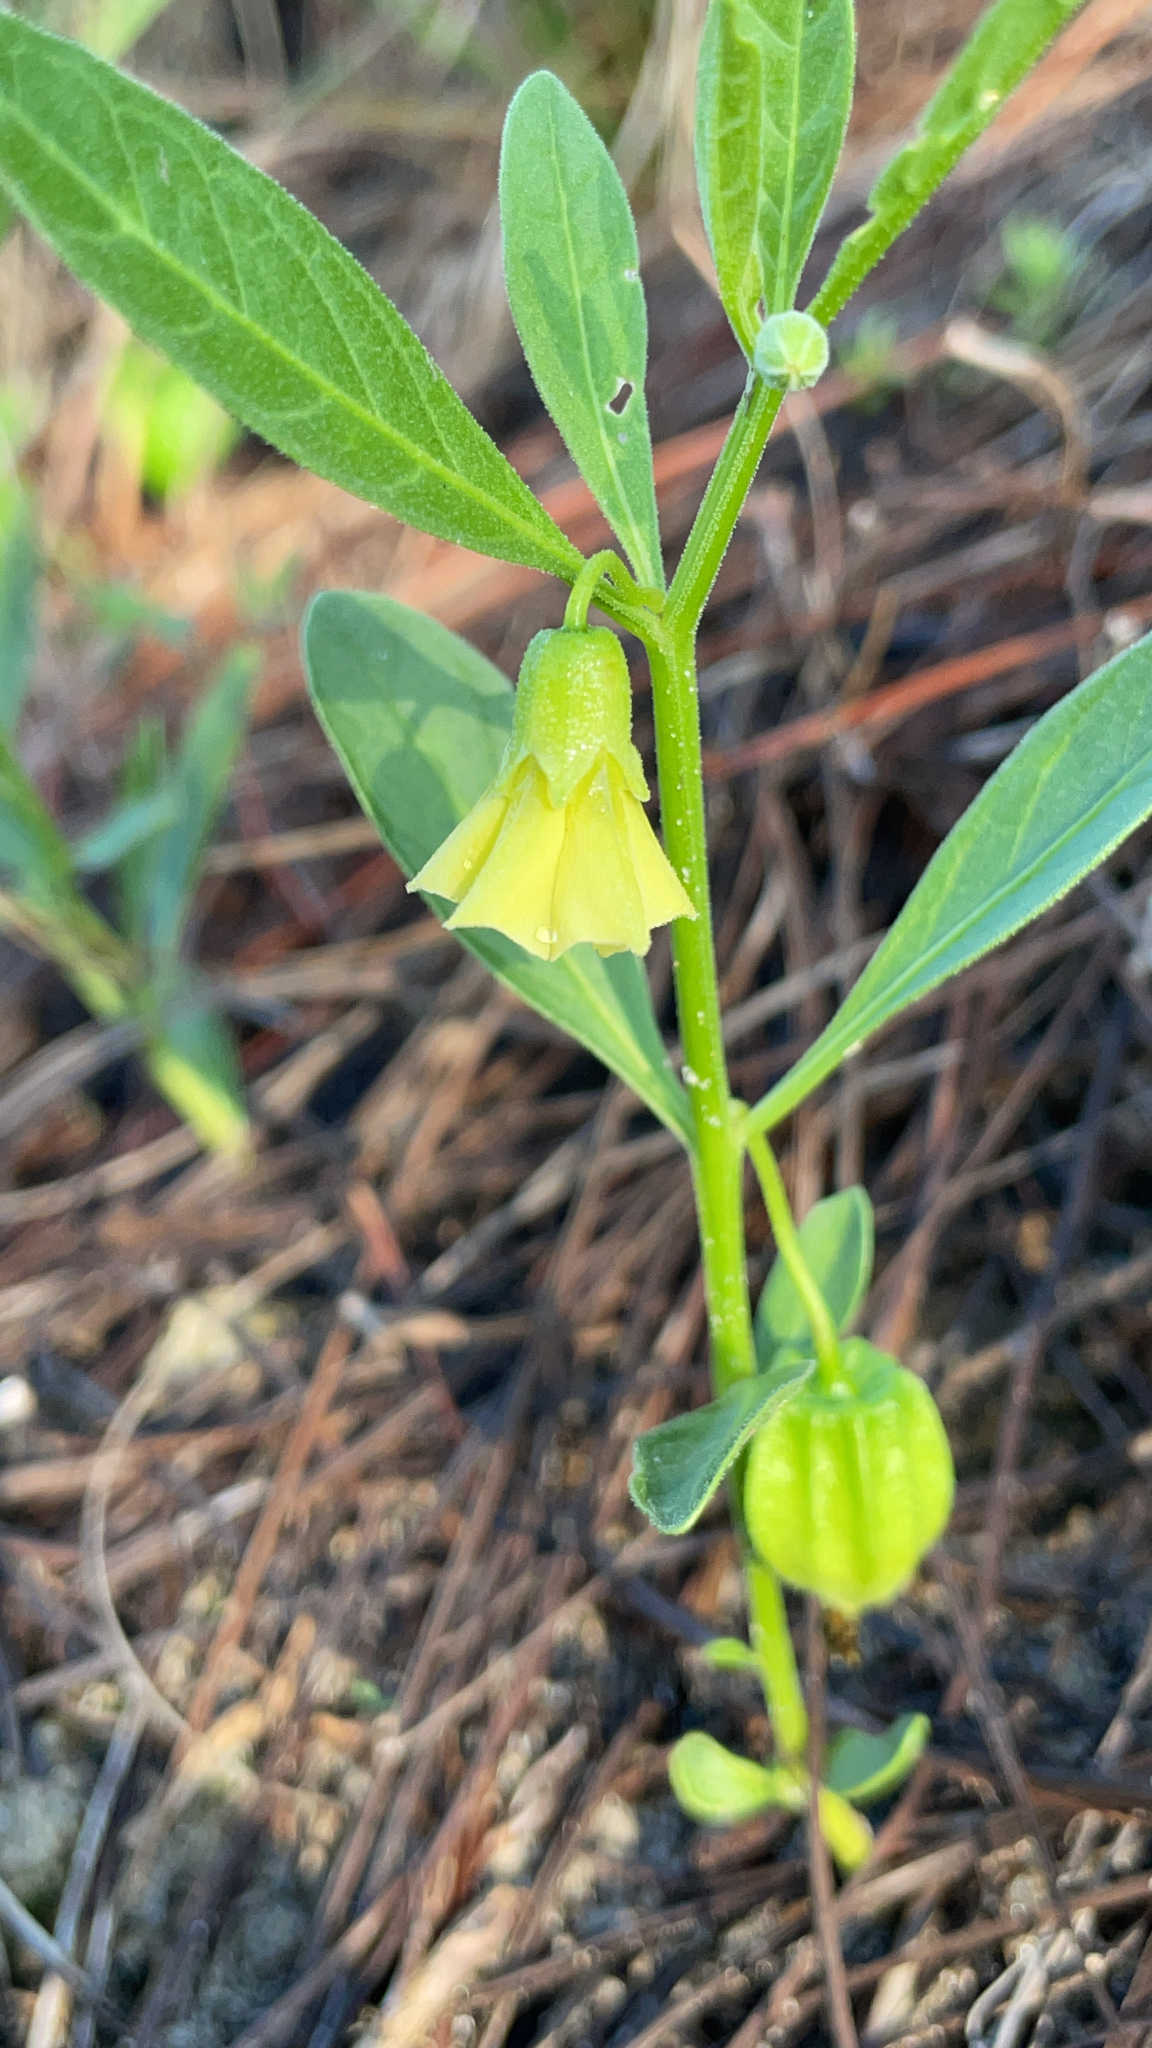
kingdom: Plantae
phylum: Tracheophyta
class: Magnoliopsida
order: Solanales
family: Solanaceae
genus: Physalis
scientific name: Physalis walteri
